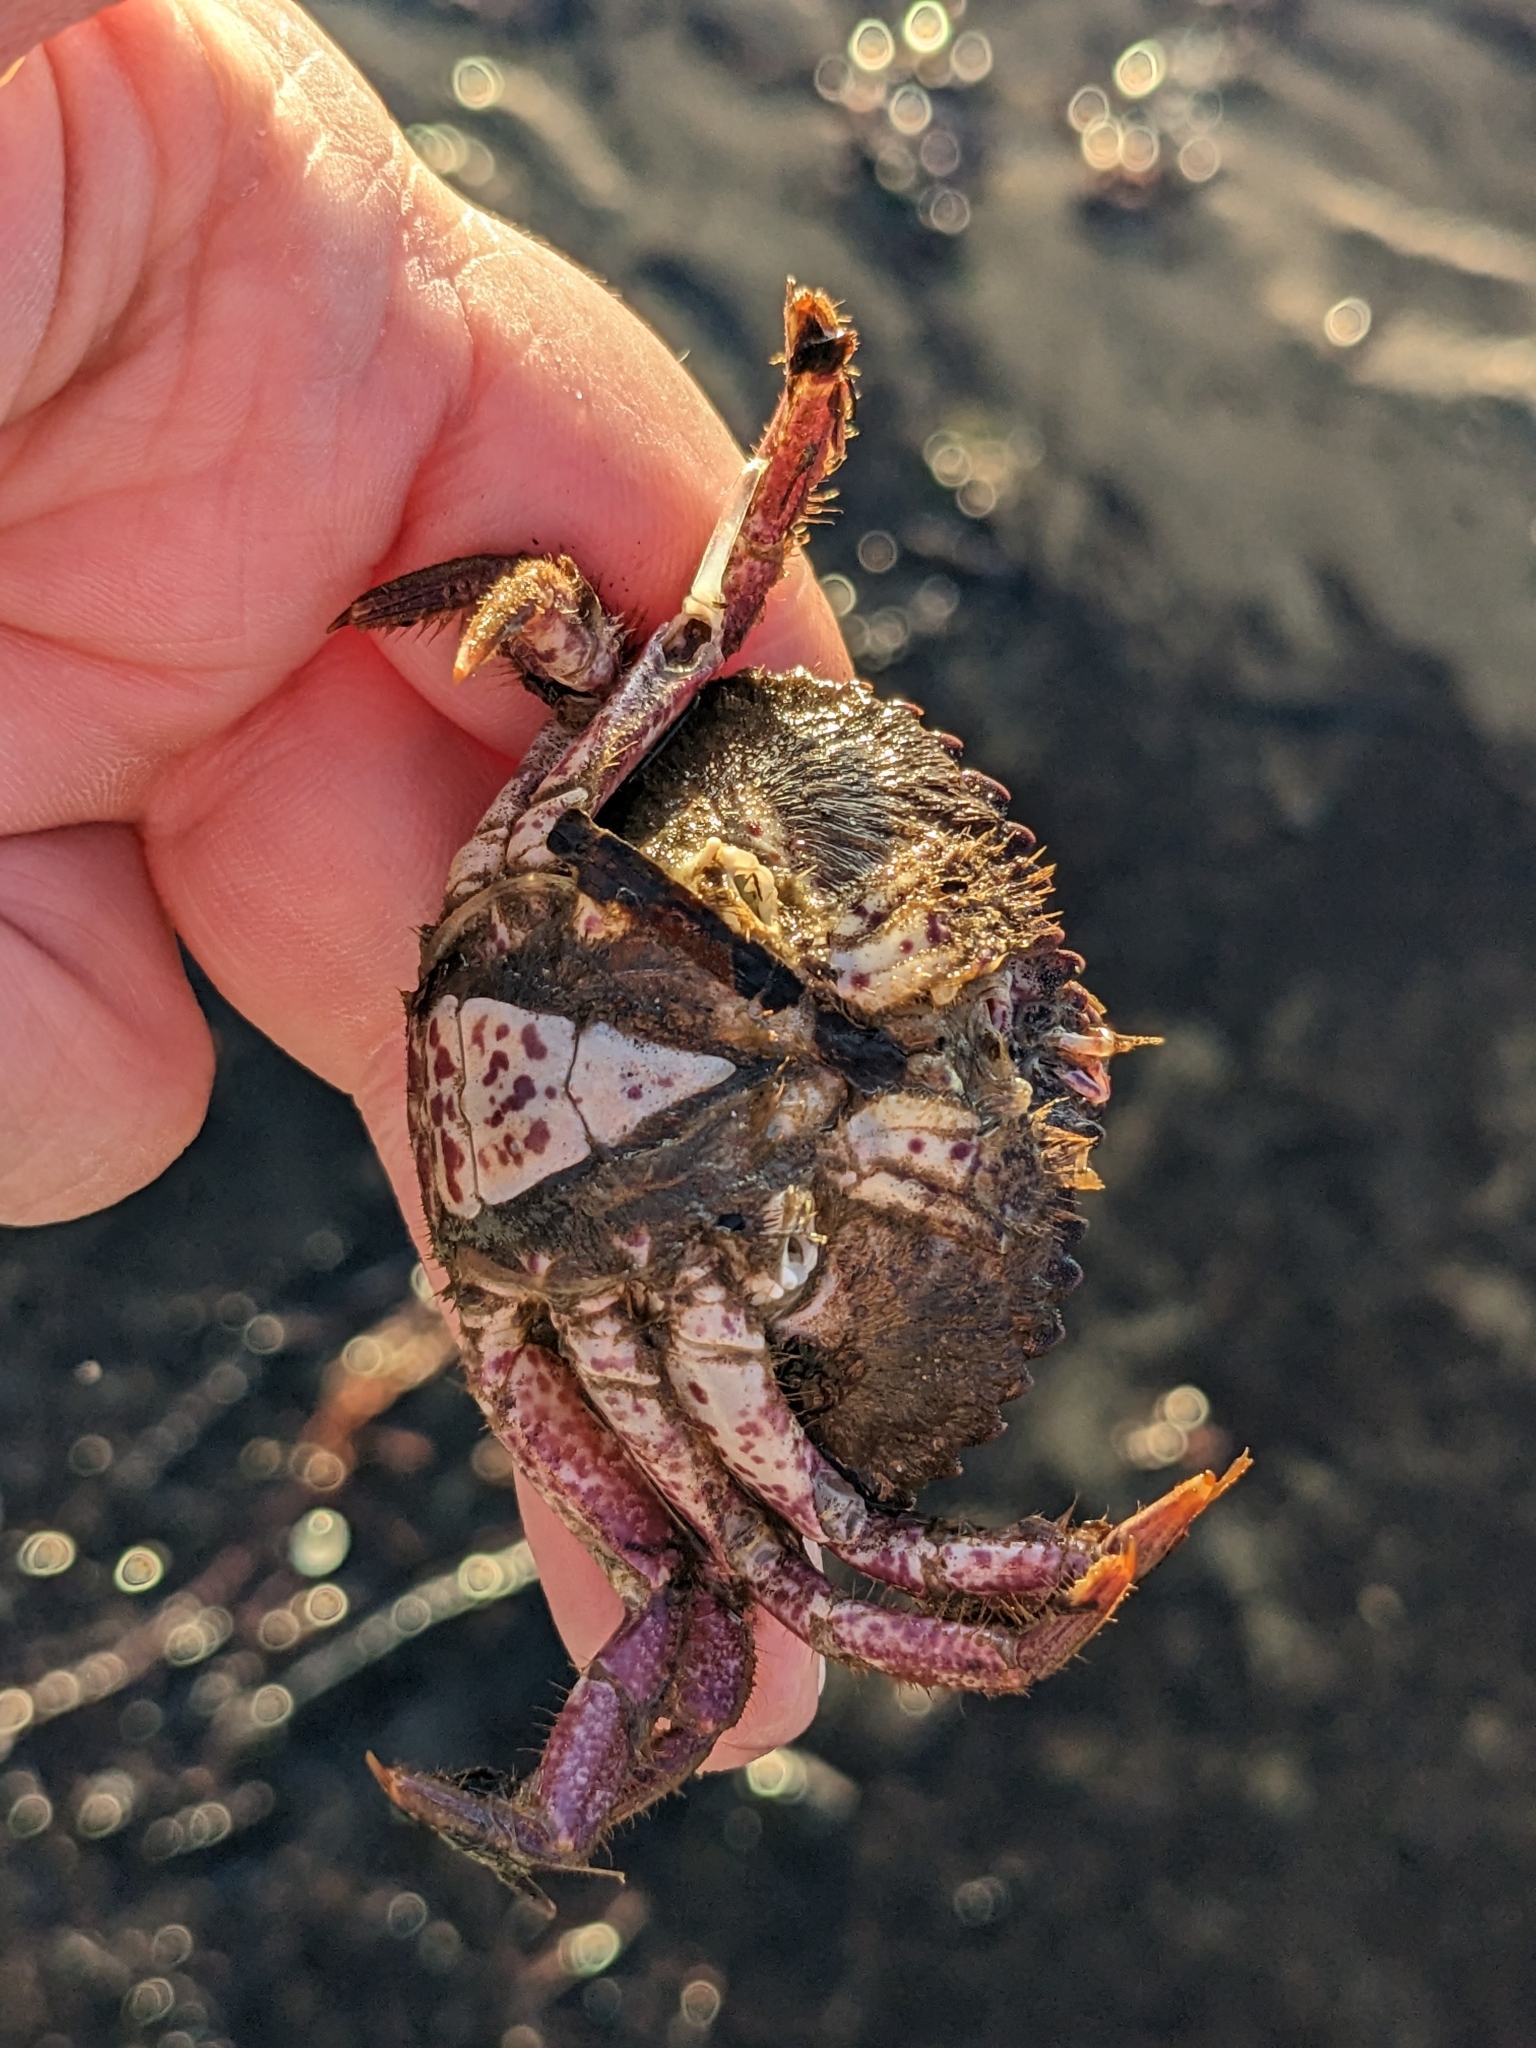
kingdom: Animalia
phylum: Arthropoda
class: Malacostraca
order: Decapoda
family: Cancridae
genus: Romaleon
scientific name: Romaleon antennarium
